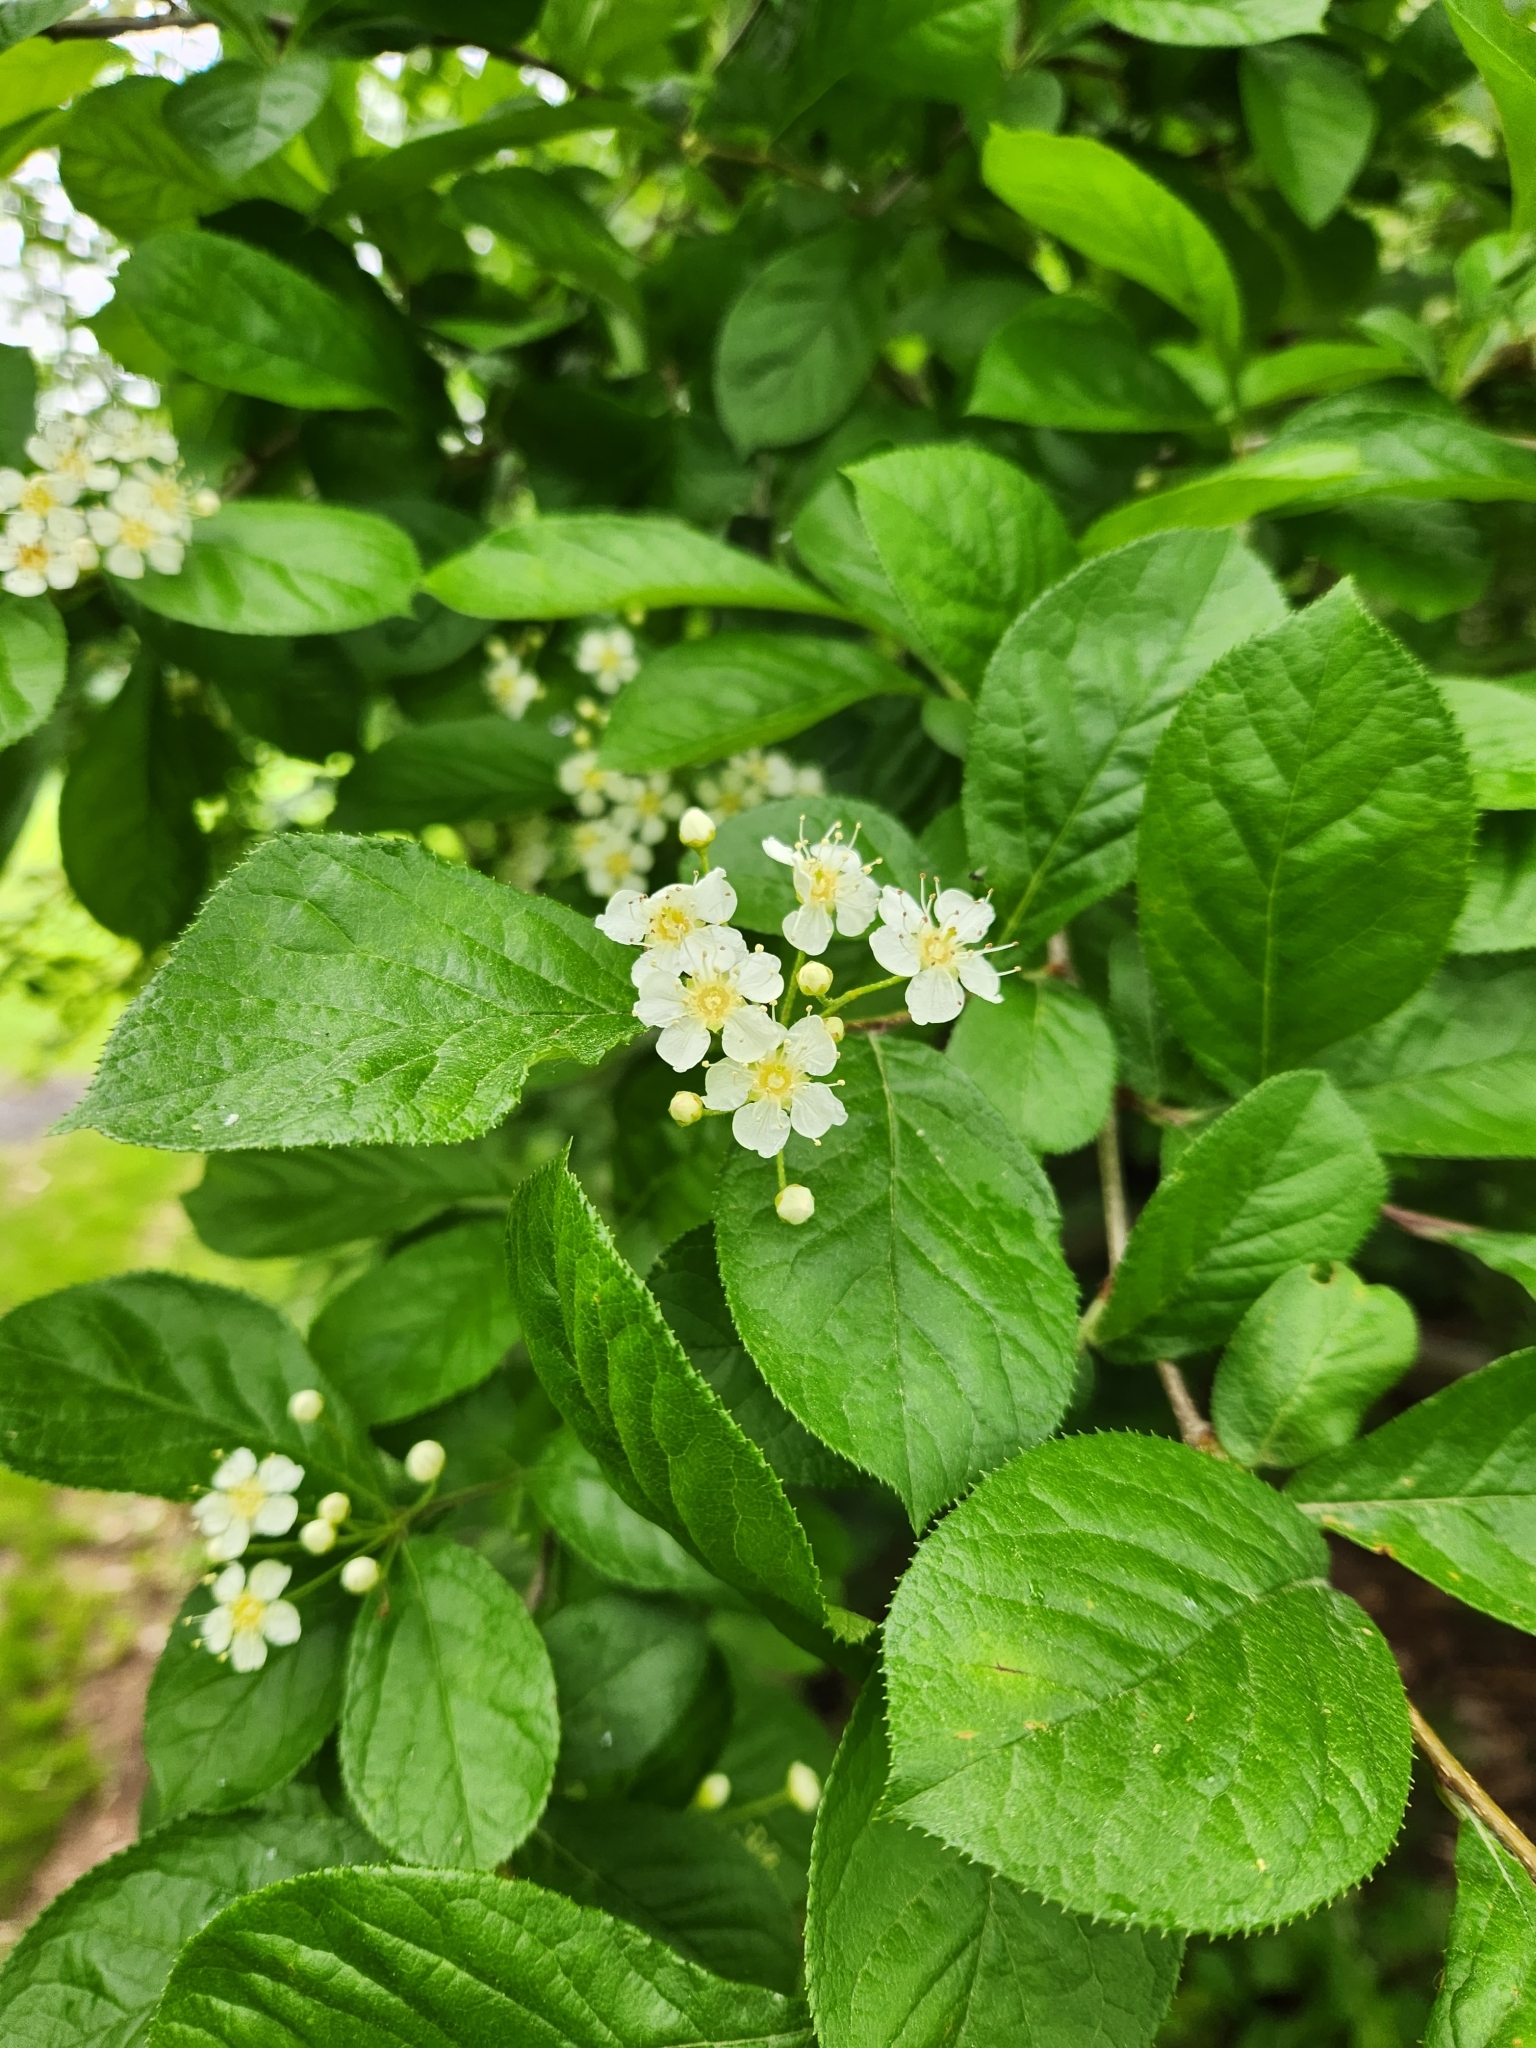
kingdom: Plantae
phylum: Tracheophyta
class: Magnoliopsida
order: Rosales
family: Rosaceae
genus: Pourthiaea
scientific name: Pourthiaea villosa
